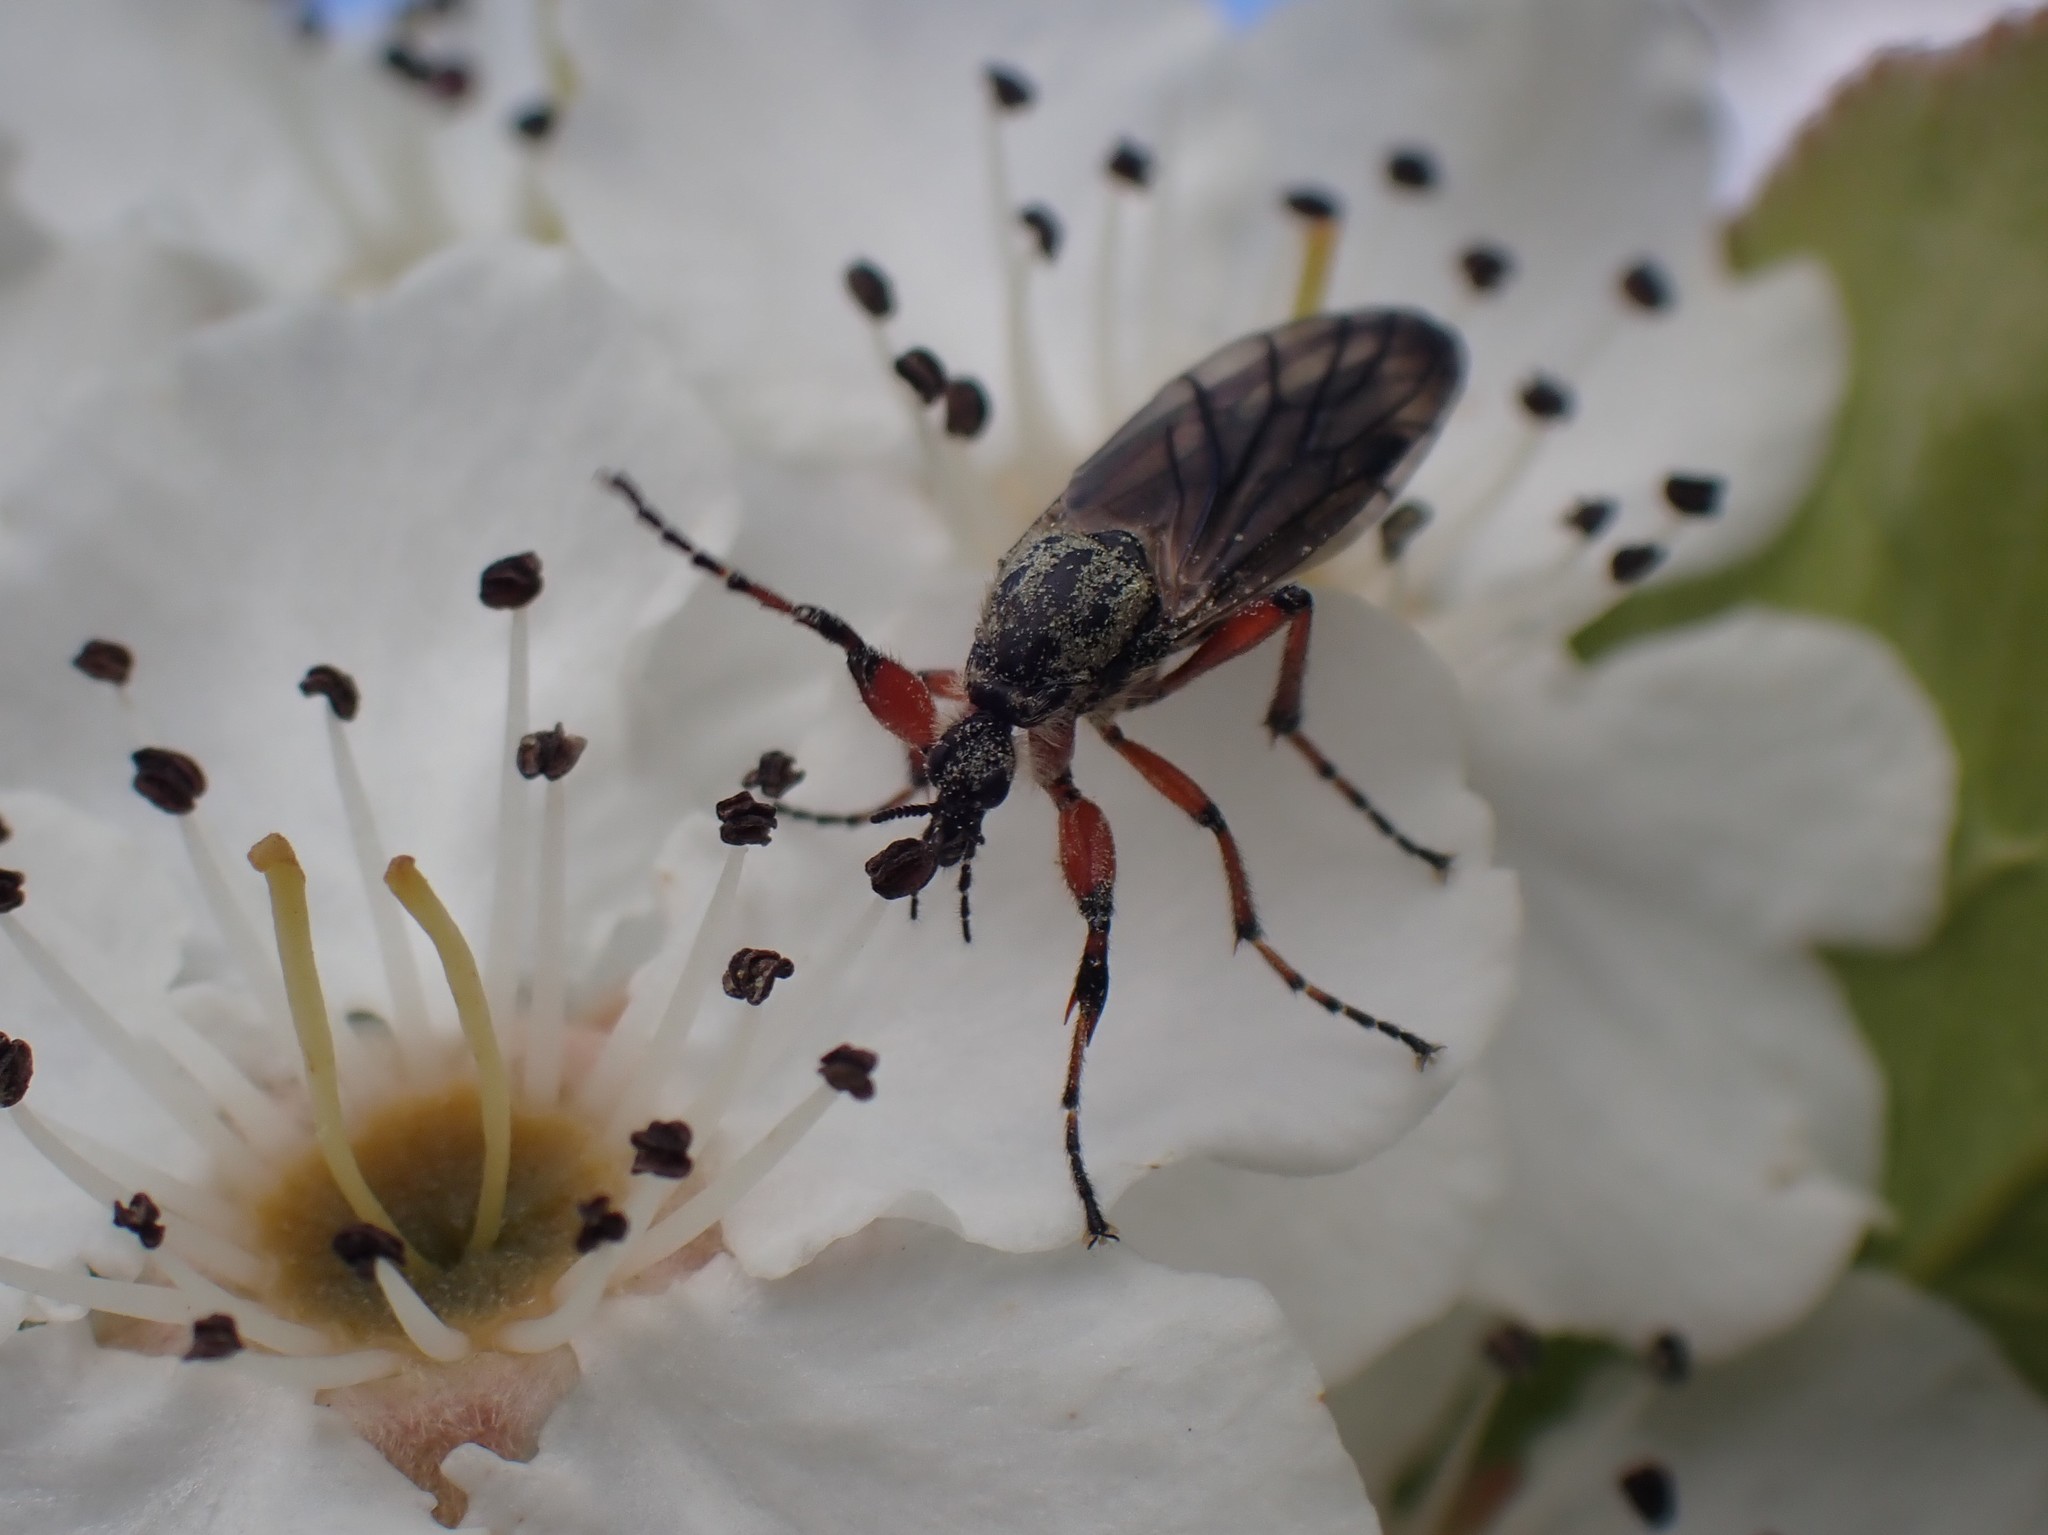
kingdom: Animalia
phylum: Arthropoda
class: Insecta
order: Diptera
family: Bibionidae
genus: Bibio
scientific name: Bibio
